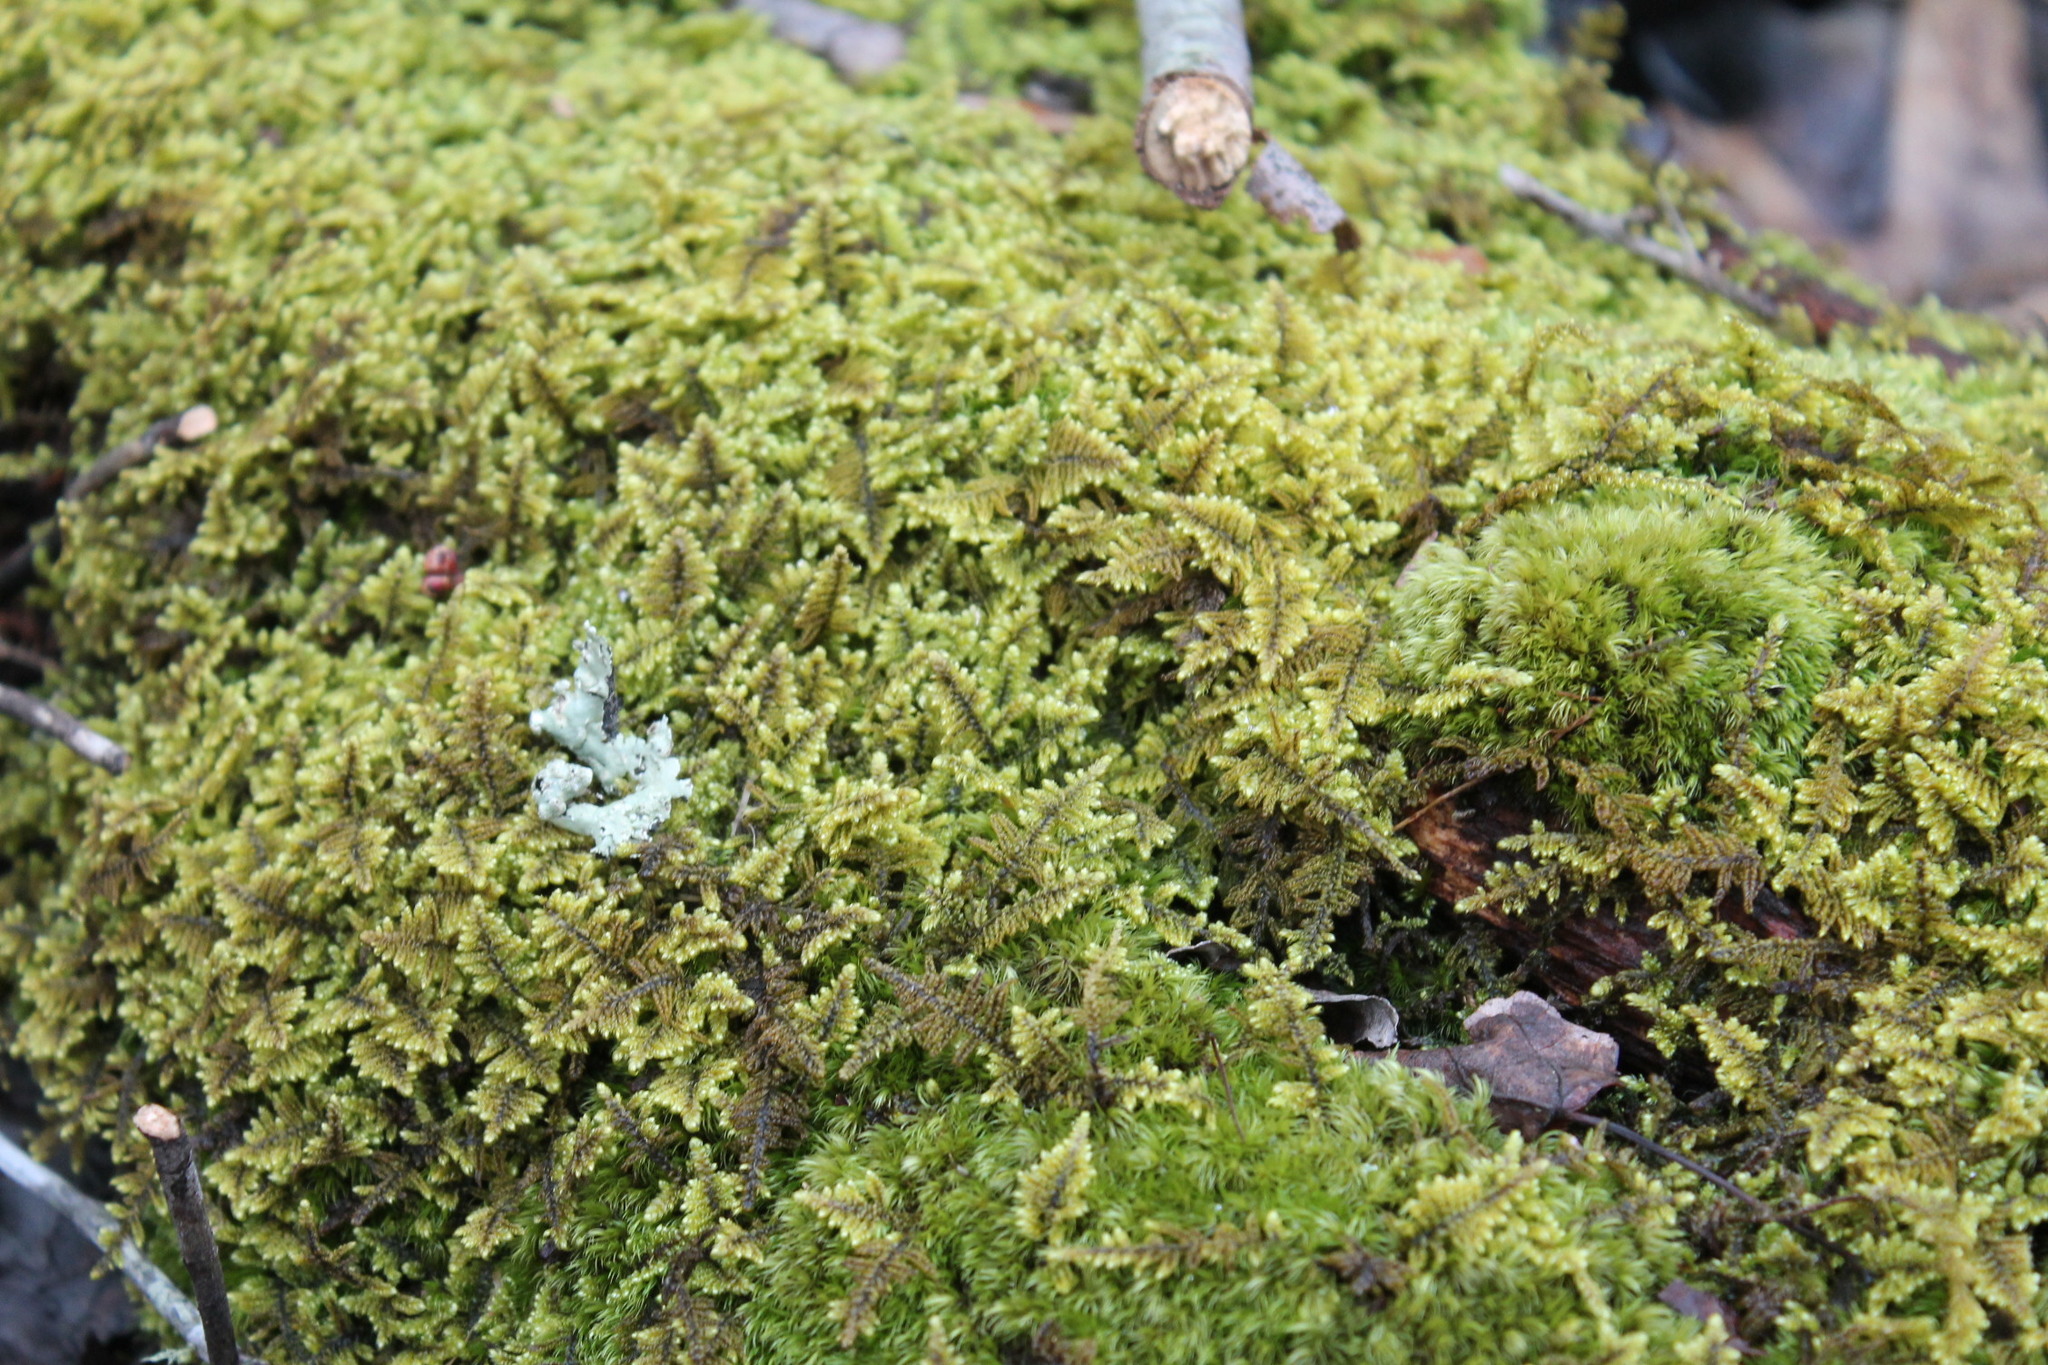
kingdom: Plantae
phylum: Bryophyta
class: Bryopsida
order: Hypnales
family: Callicladiaceae
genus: Callicladium
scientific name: Callicladium imponens
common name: Brocade moss
